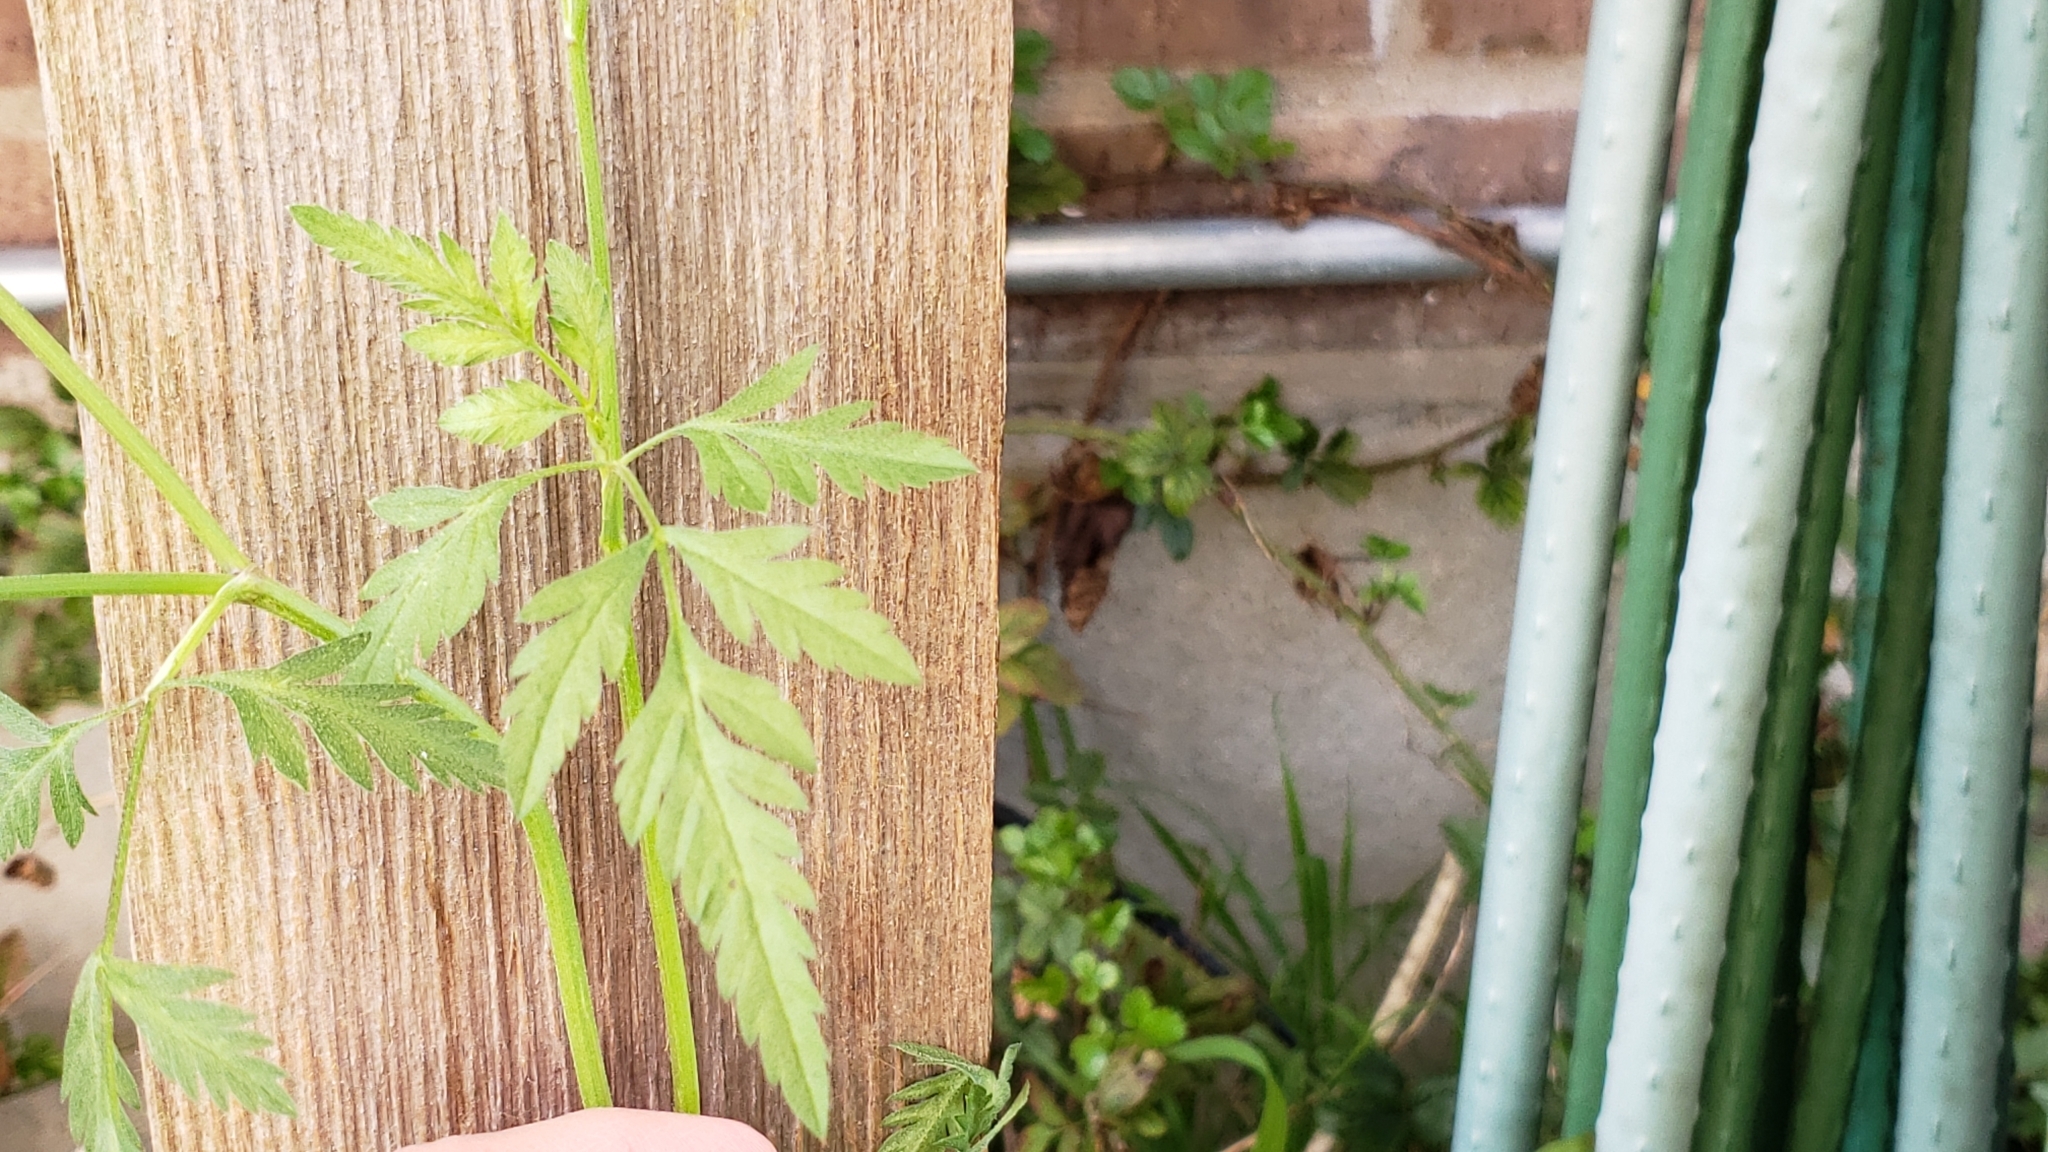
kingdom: Plantae
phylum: Tracheophyta
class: Magnoliopsida
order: Apiales
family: Apiaceae
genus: Torilis
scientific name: Torilis arvensis
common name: Spreading hedge-parsley
